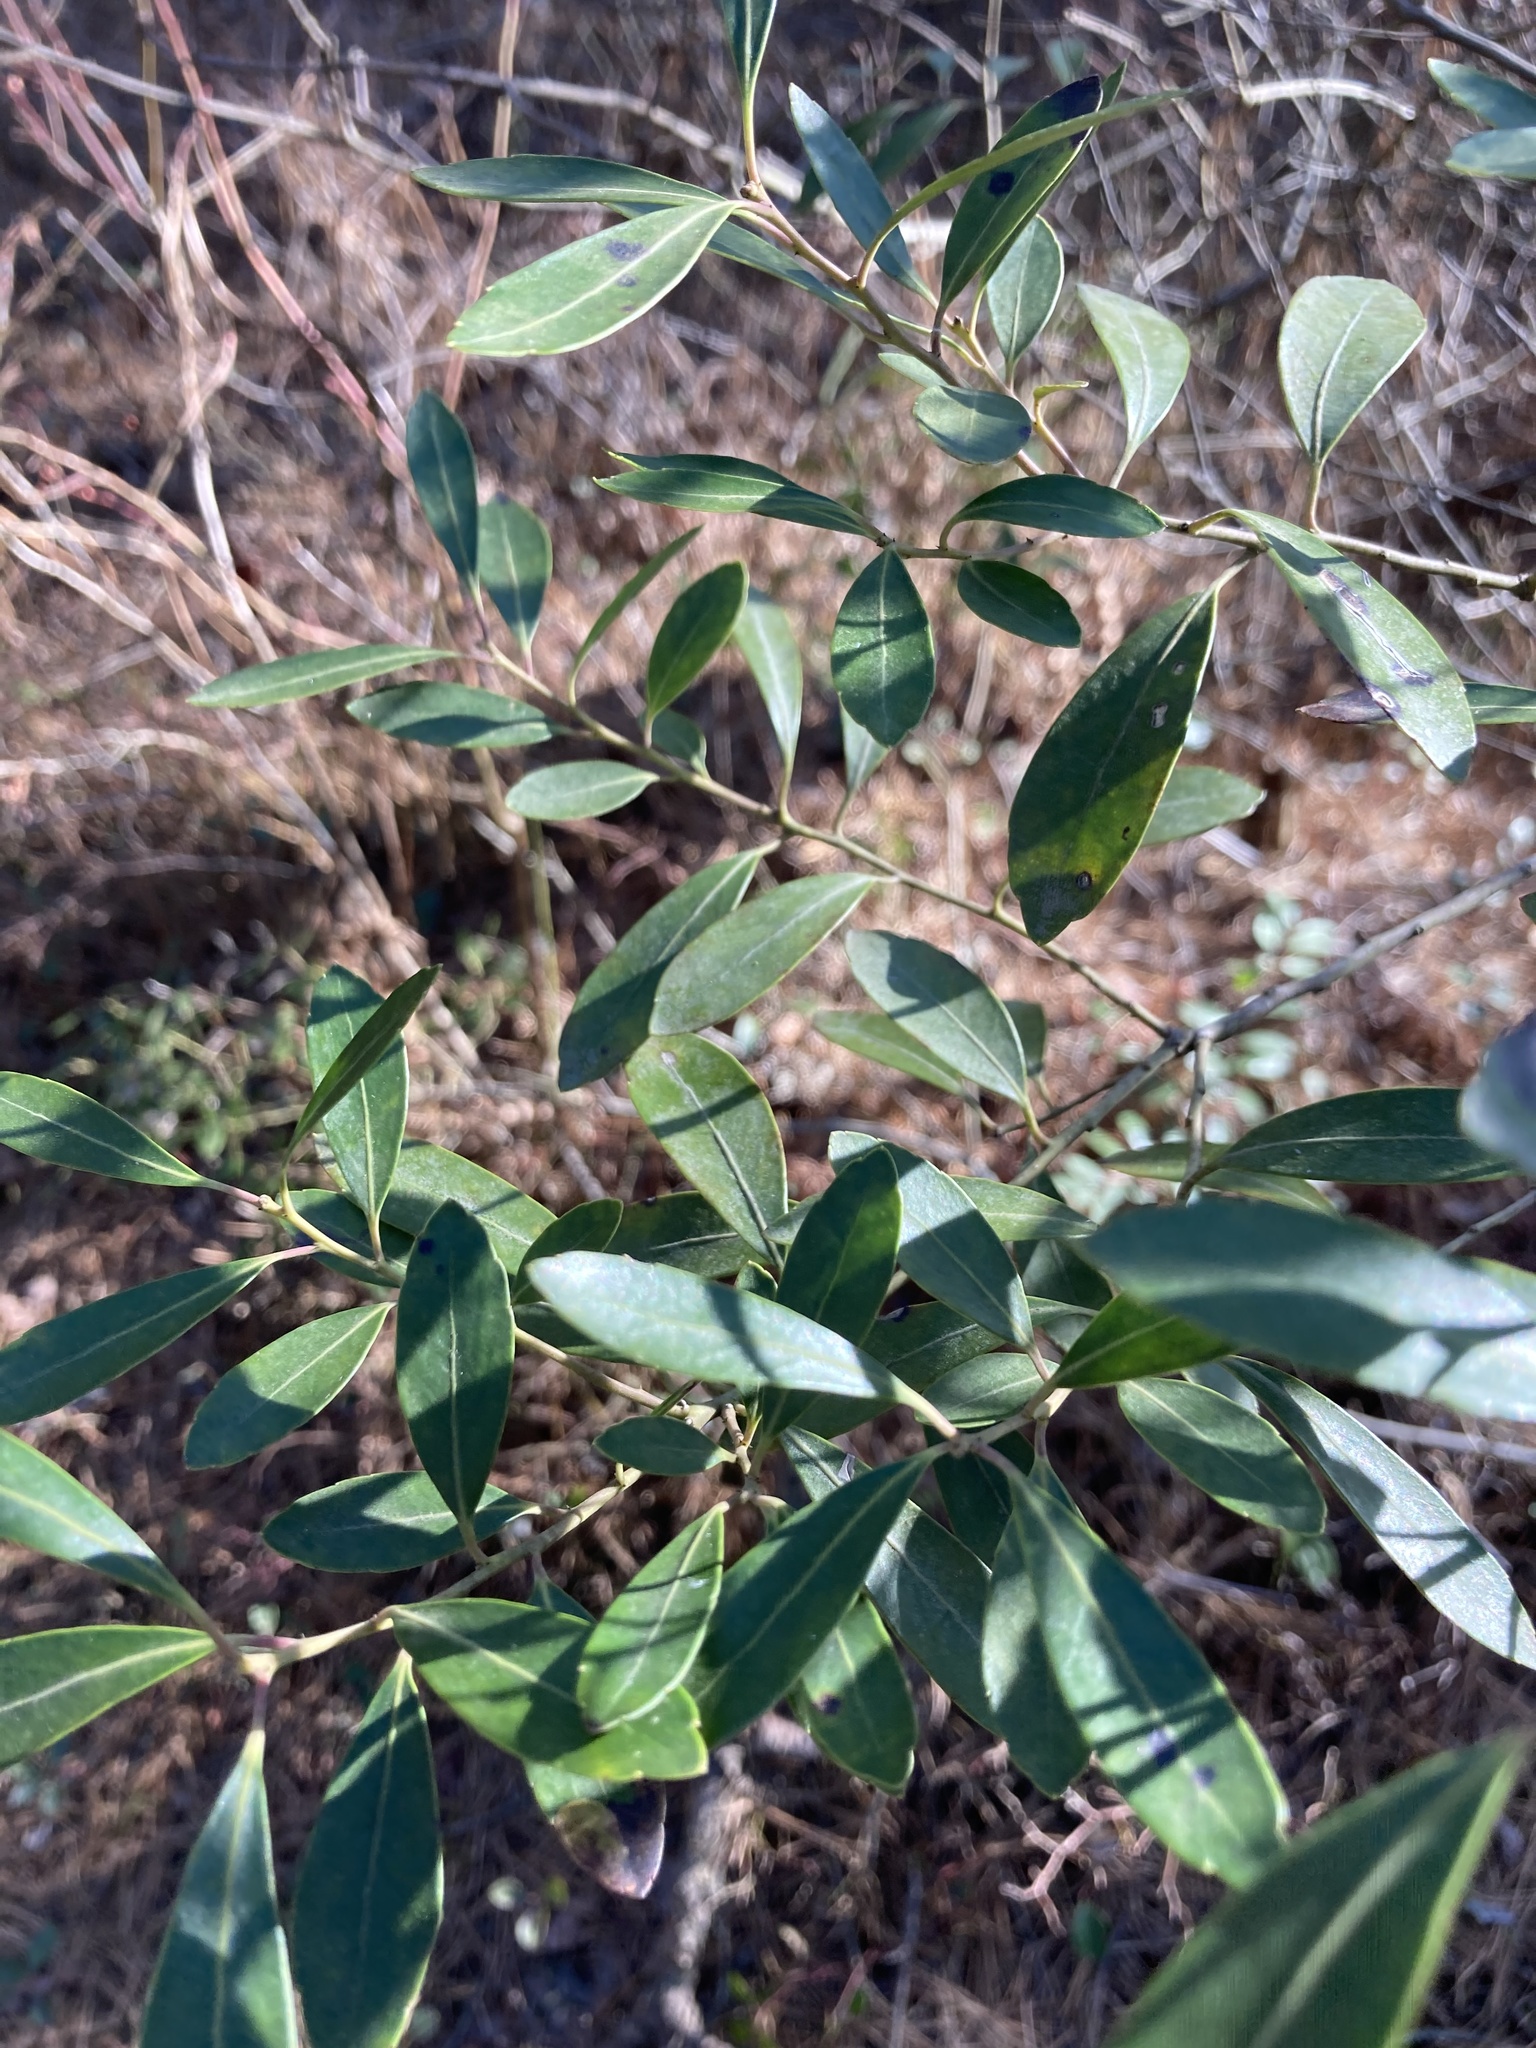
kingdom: Plantae
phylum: Tracheophyta
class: Magnoliopsida
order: Aquifoliales
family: Aquifoliaceae
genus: Ilex
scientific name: Ilex glabra
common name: Bitter gallberry
